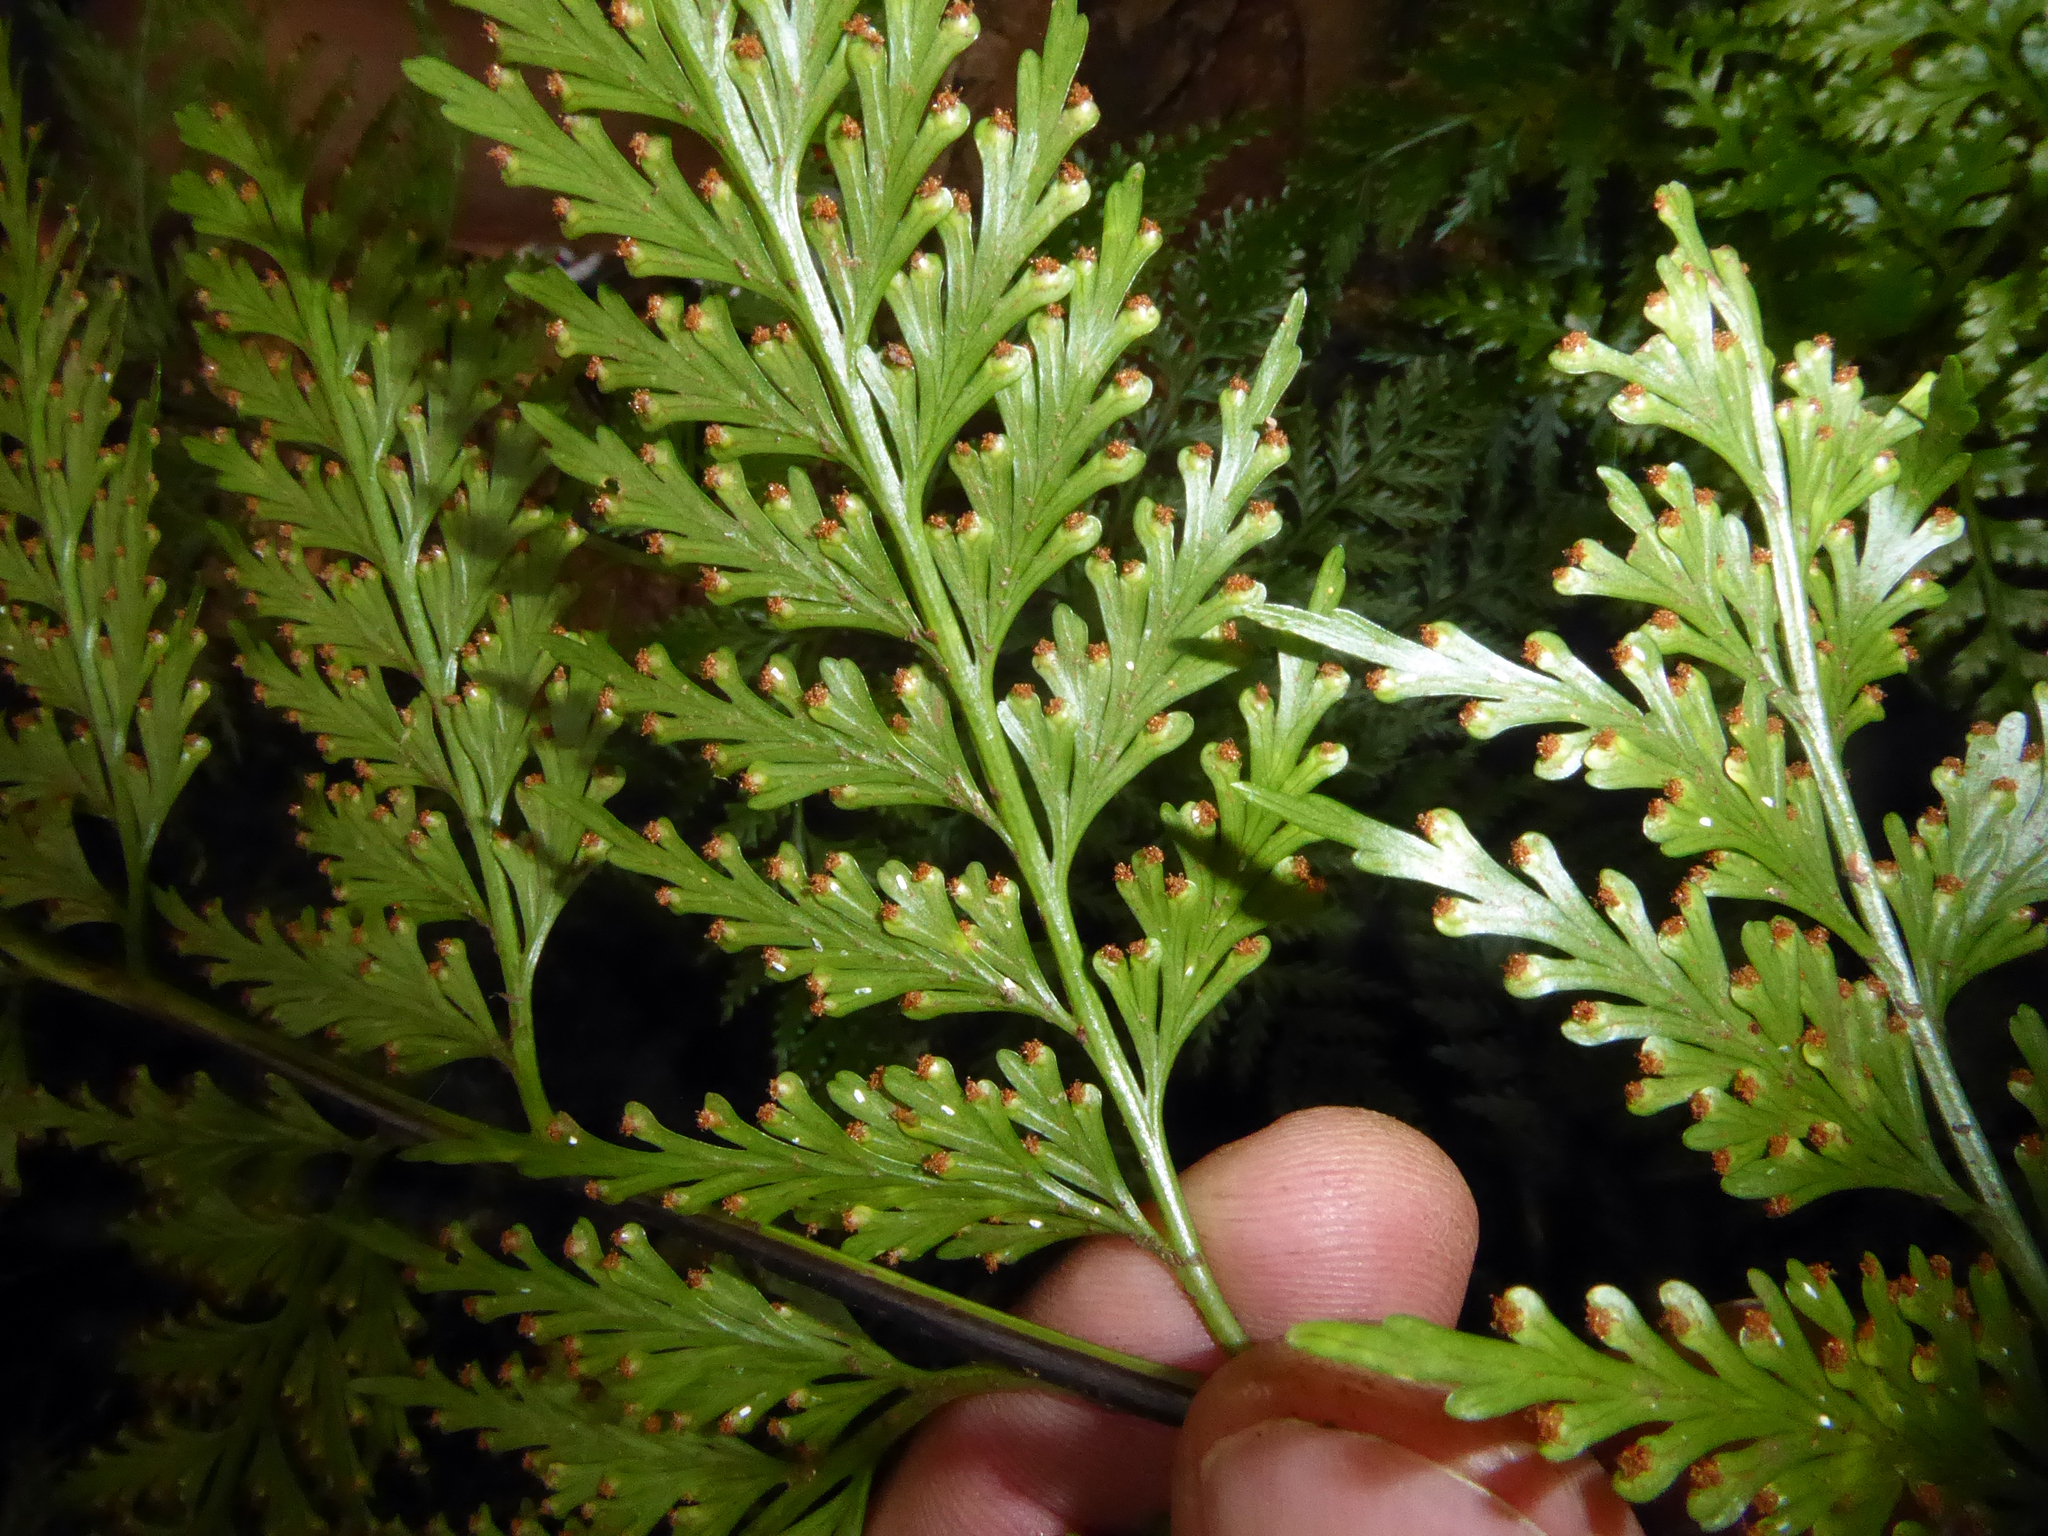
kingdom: Plantae
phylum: Tracheophyta
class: Polypodiopsida
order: Polypodiales
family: Aspleniaceae
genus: Asplenium
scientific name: Asplenium gibberosum
